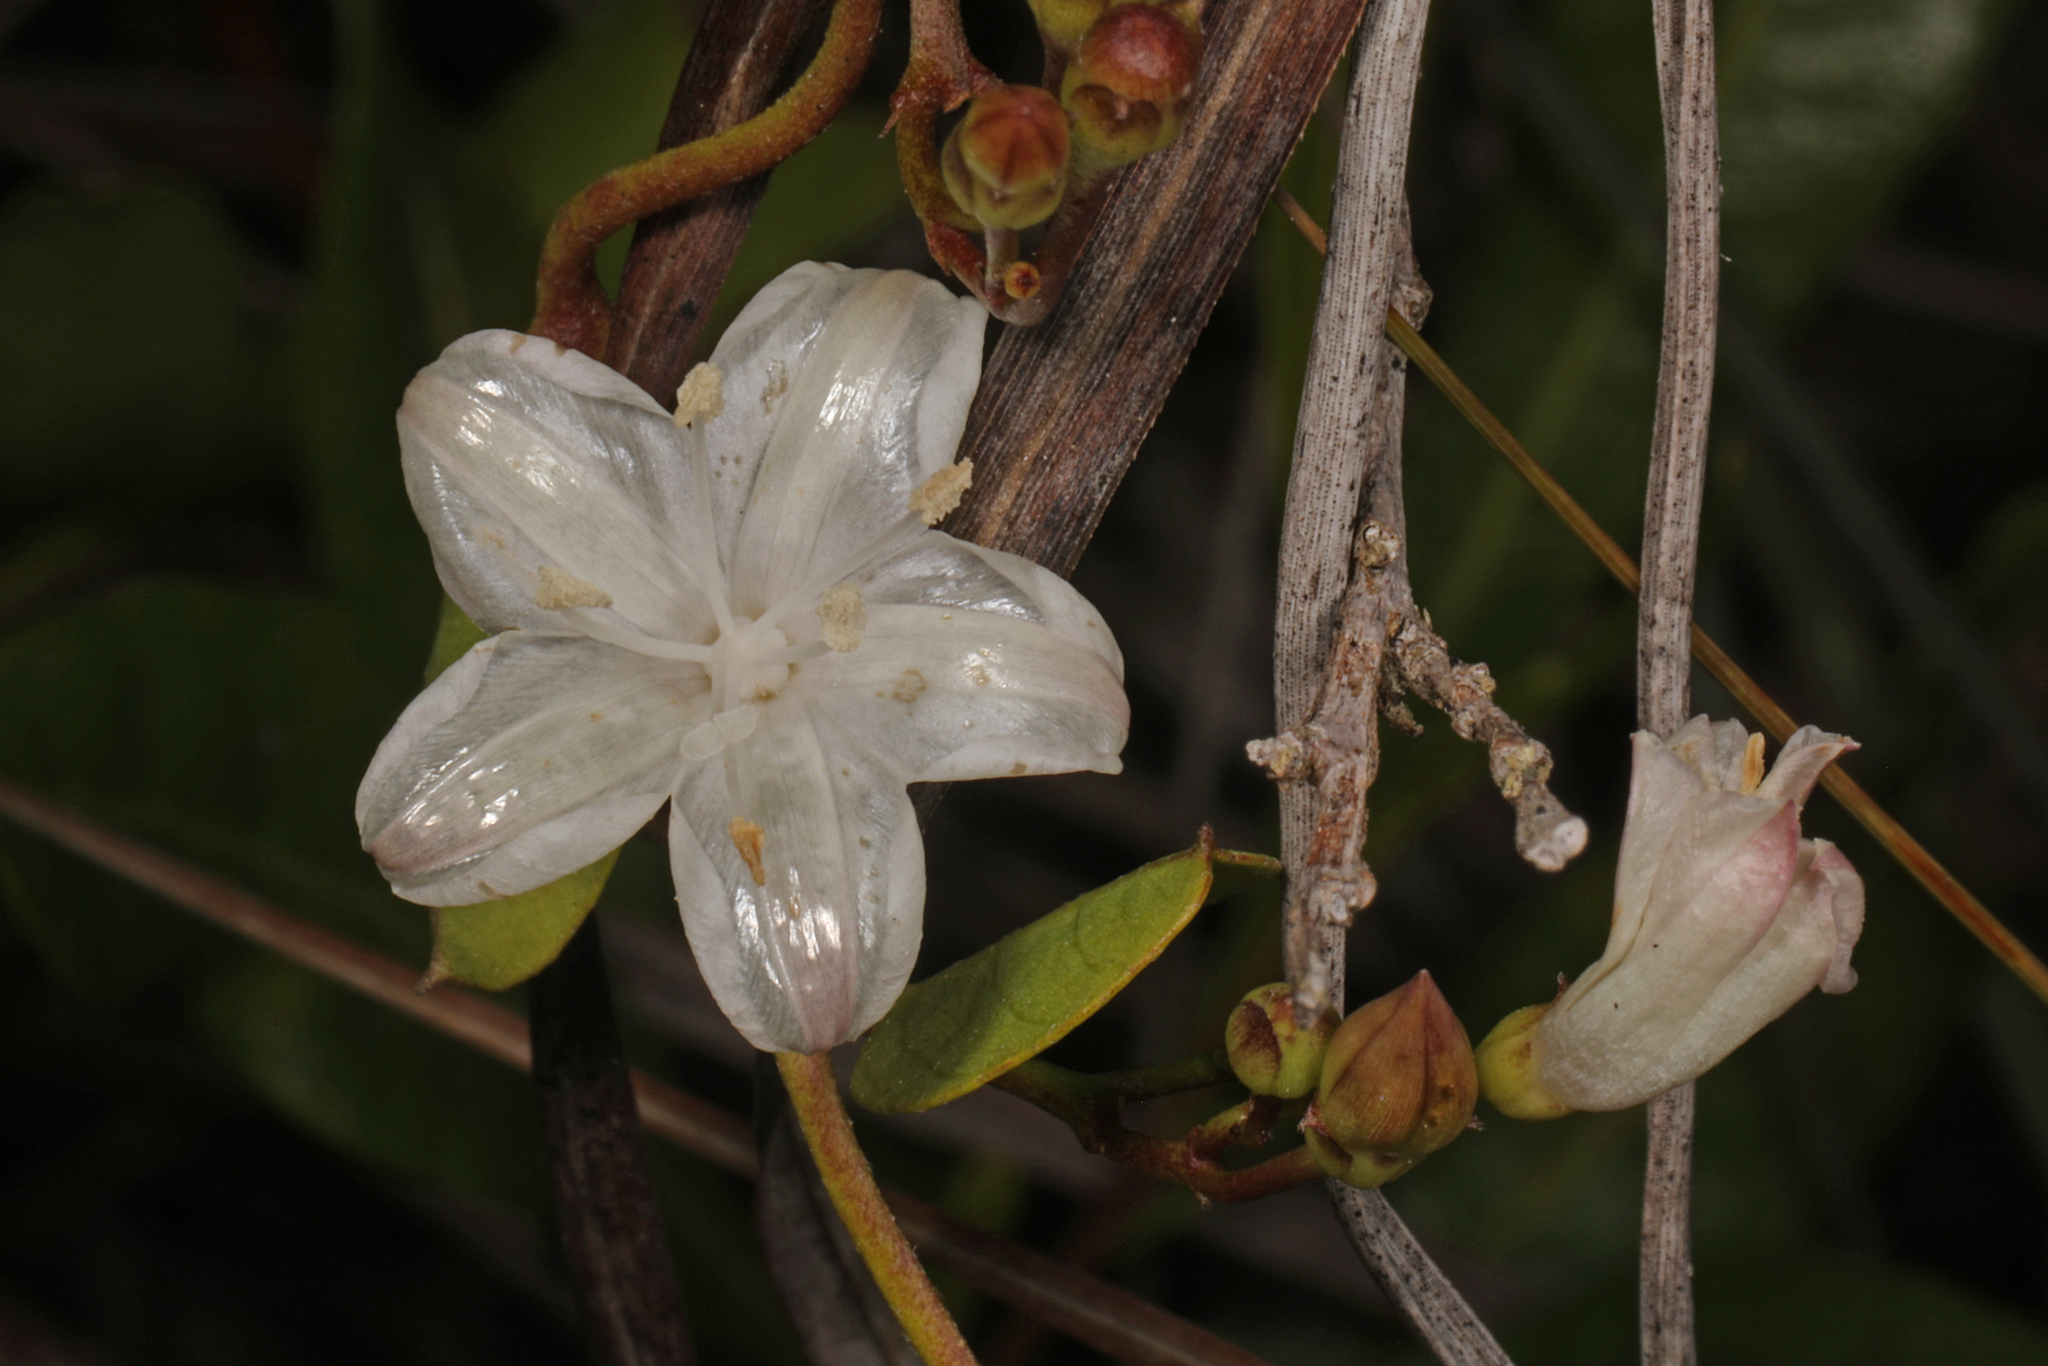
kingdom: Plantae
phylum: Tracheophyta
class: Magnoliopsida
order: Solanales
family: Convolvulaceae
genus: Jacquemontia
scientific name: Jacquemontia curtissii
